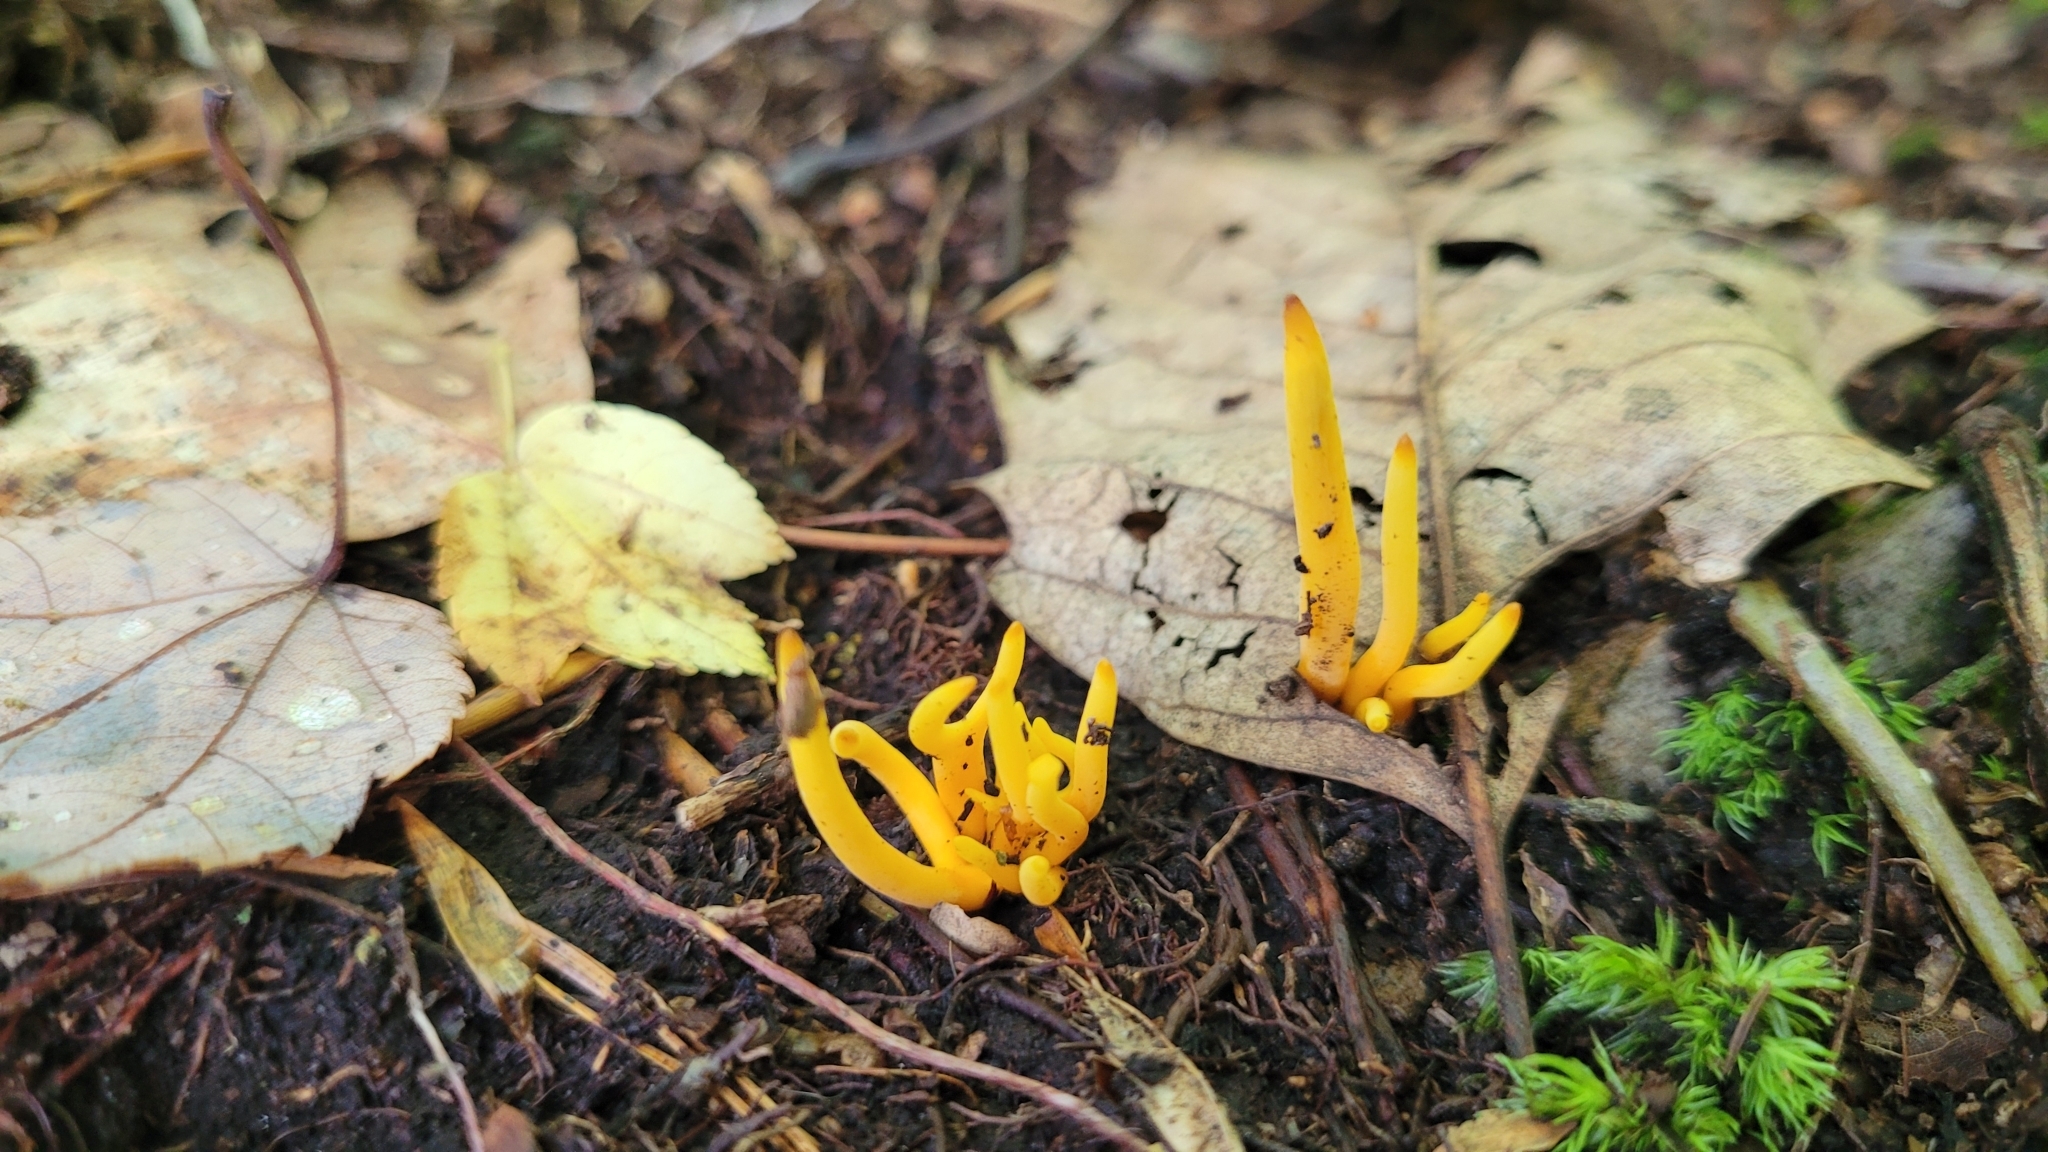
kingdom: Fungi
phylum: Basidiomycota
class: Agaricomycetes
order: Agaricales
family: Clavariaceae
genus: Clavulinopsis
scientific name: Clavulinopsis laeticolor
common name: Handsome club
